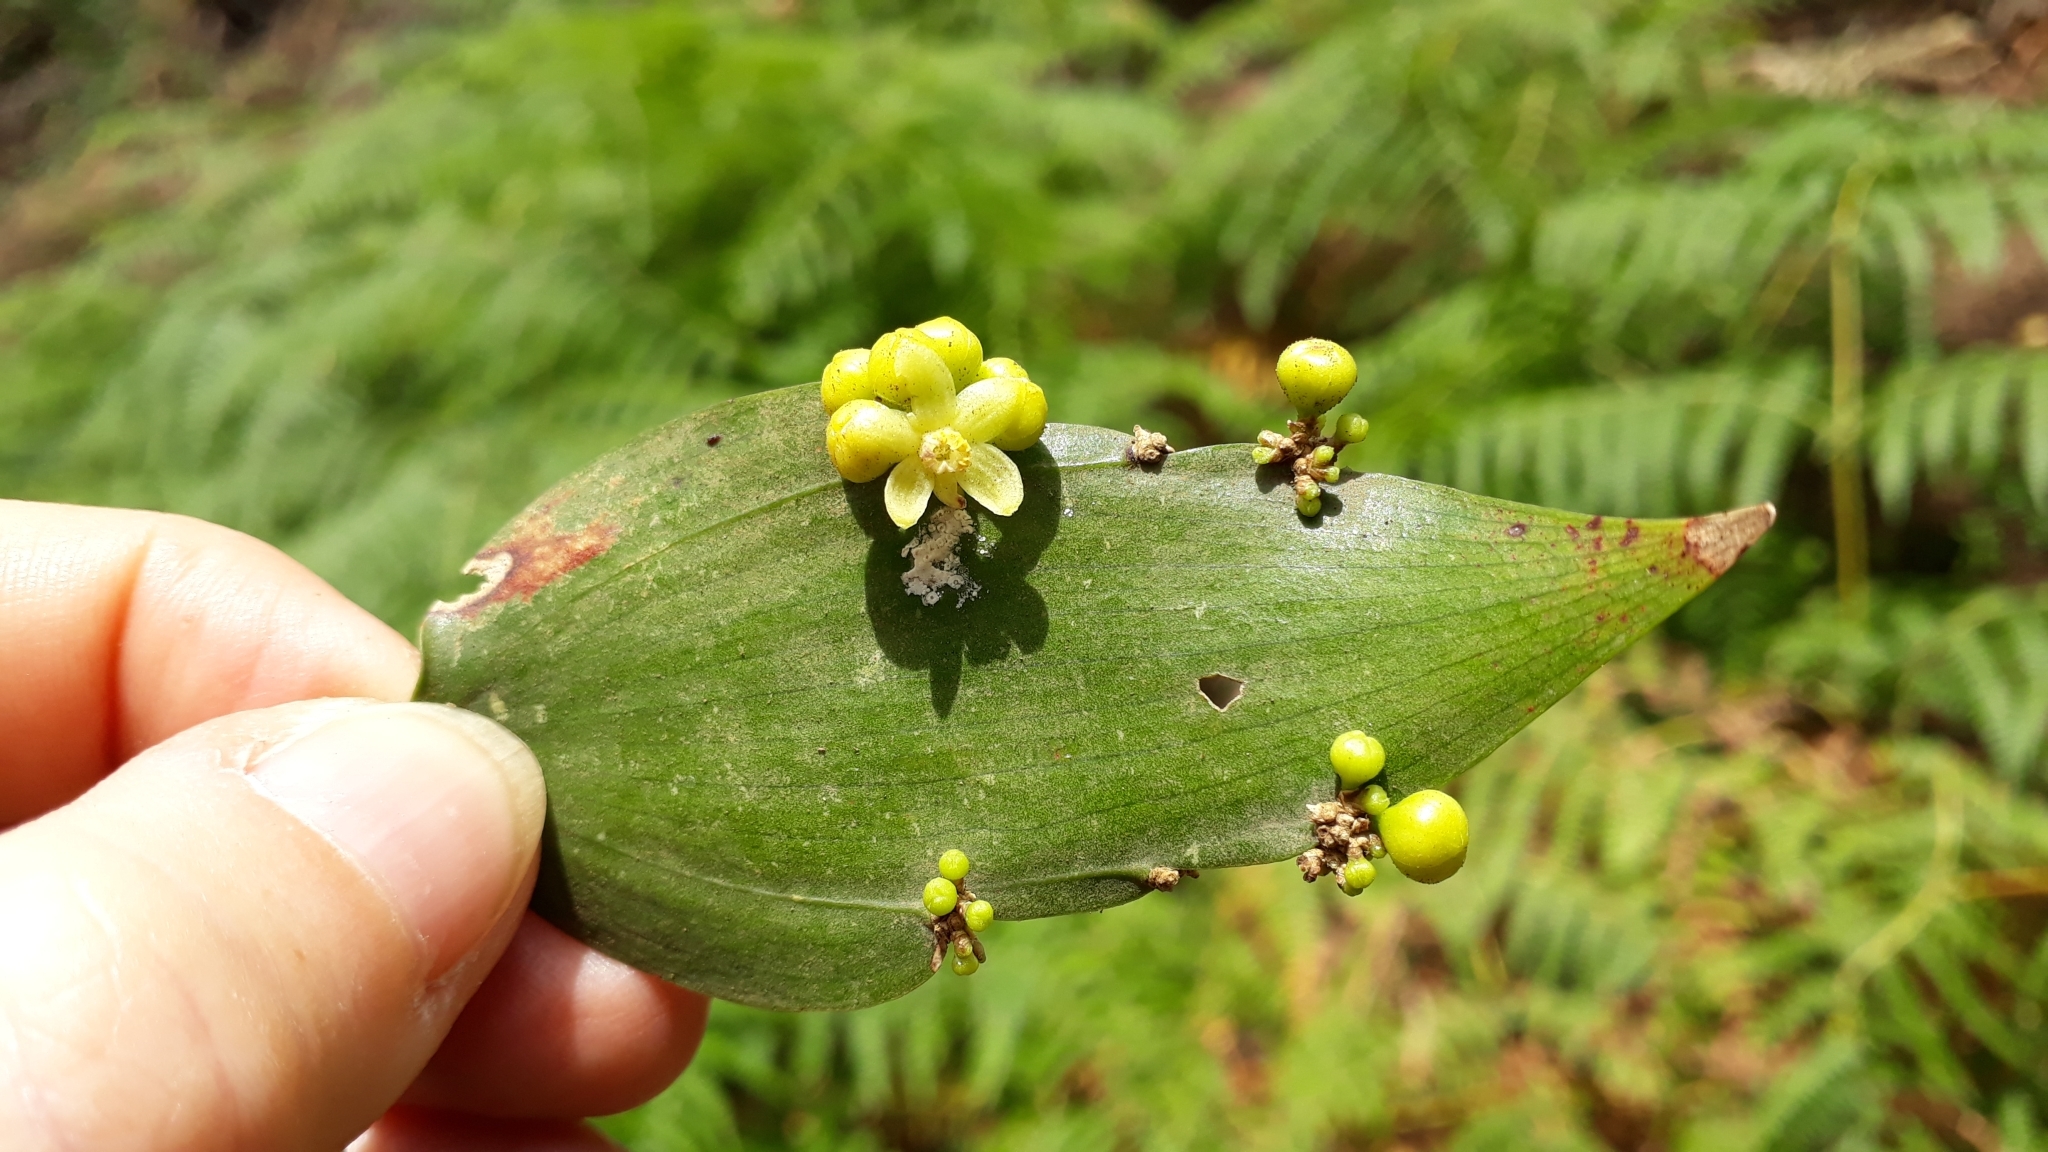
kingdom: Plantae
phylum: Tracheophyta
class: Liliopsida
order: Asparagales
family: Asparagaceae
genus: Semele
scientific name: Semele androgyna
